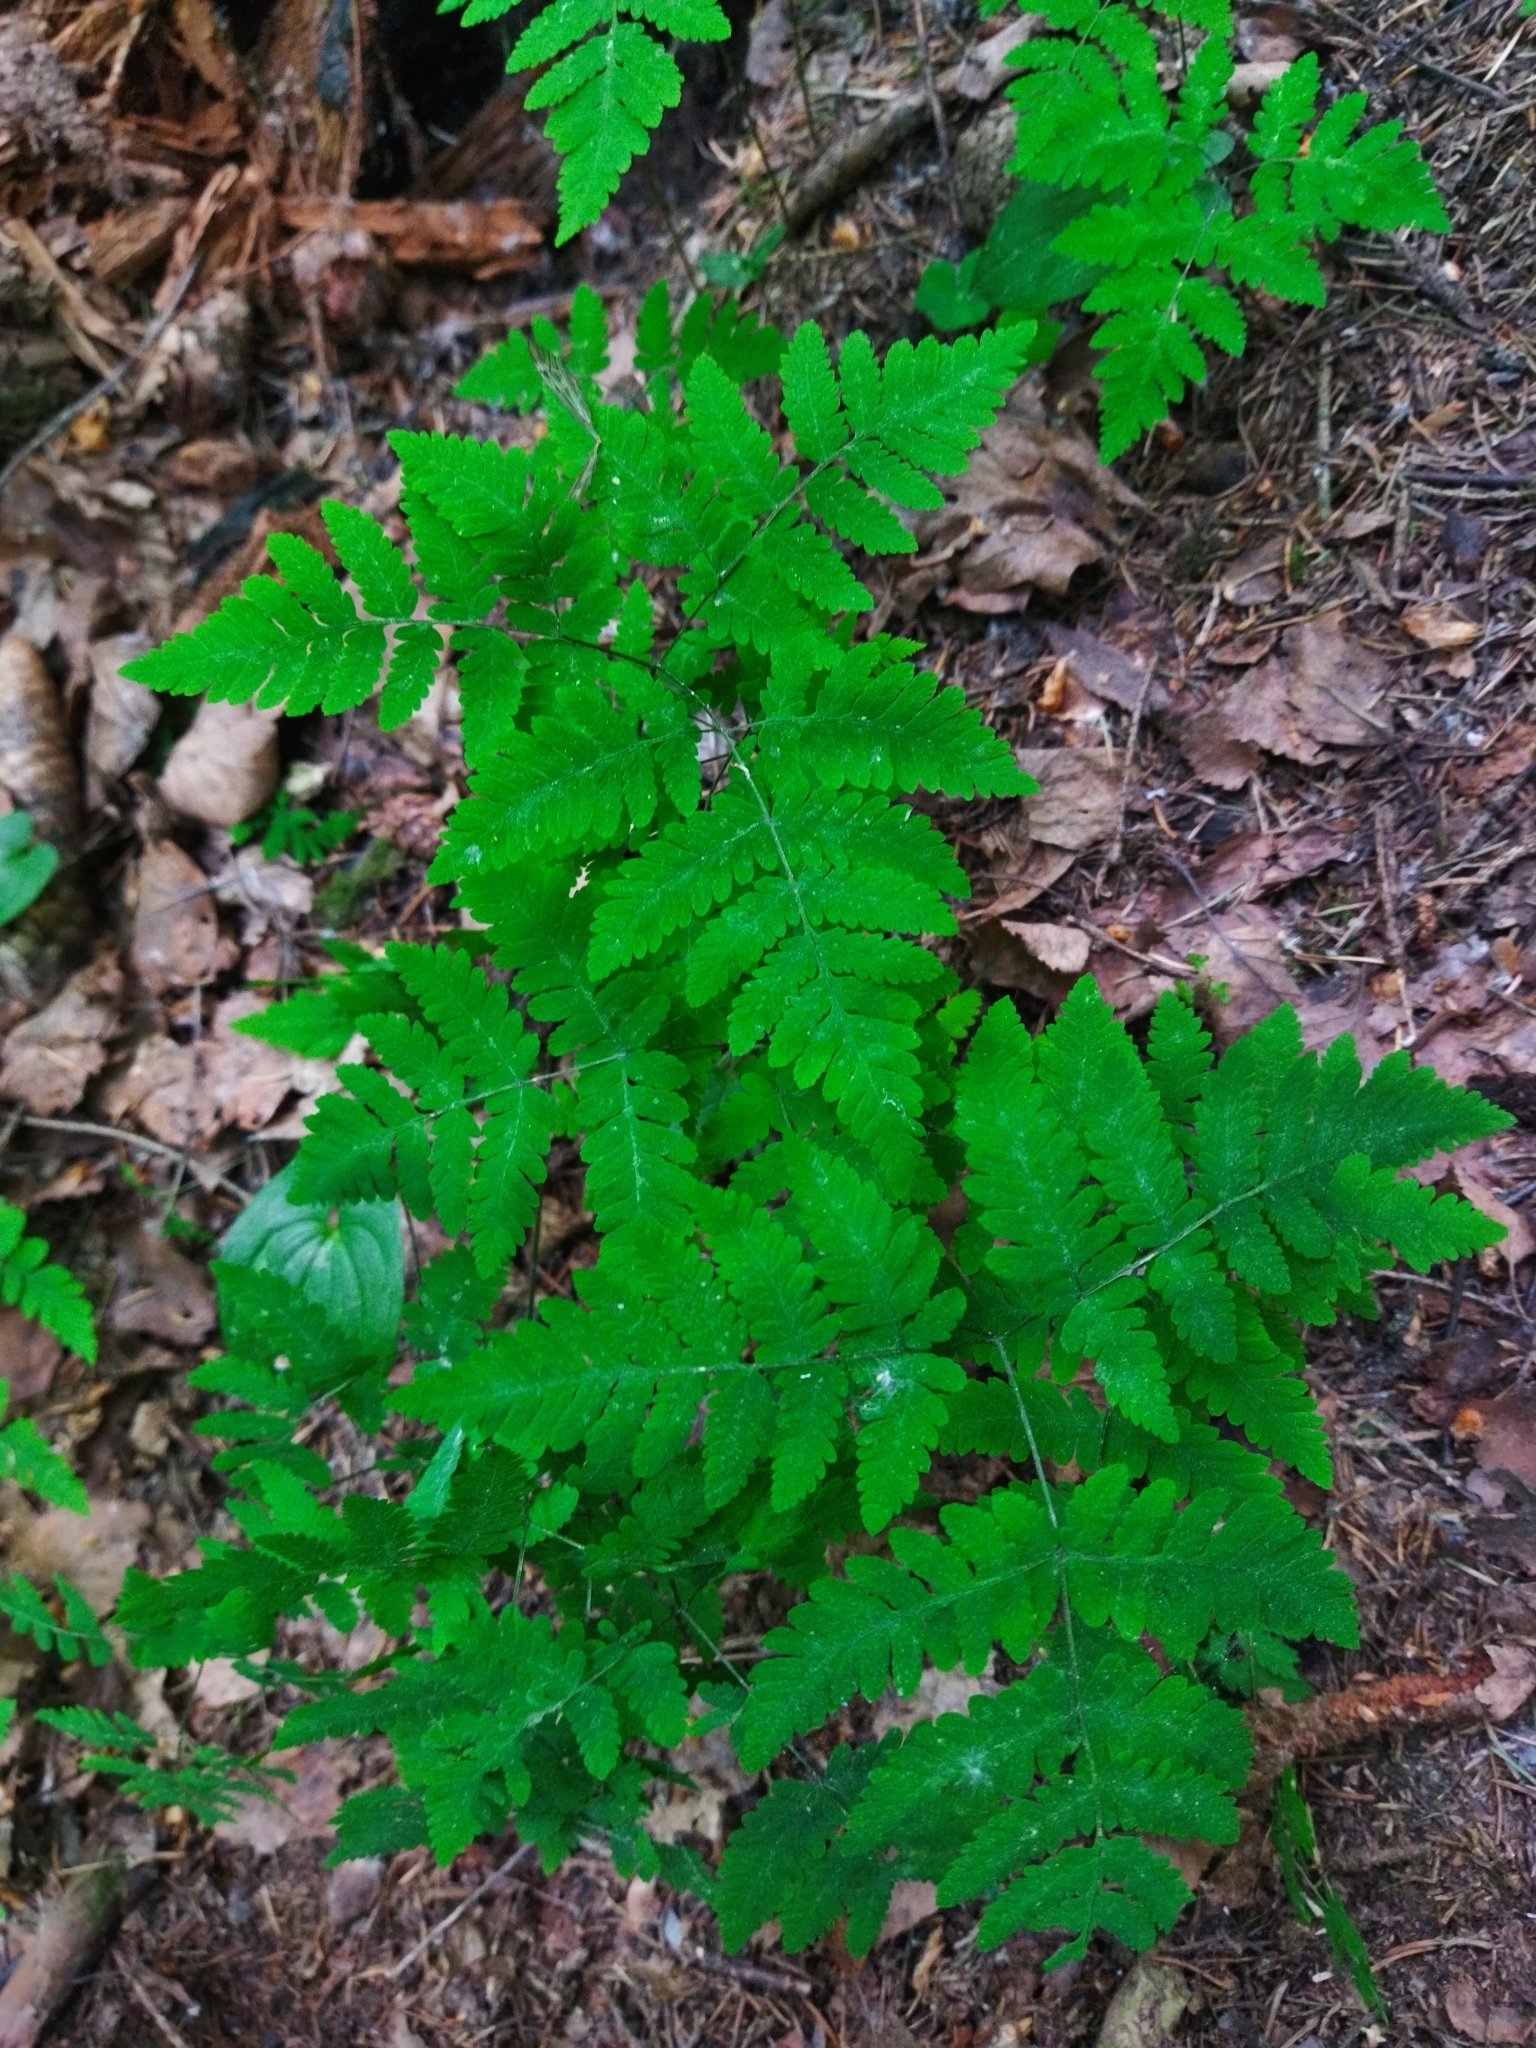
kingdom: Plantae
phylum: Tracheophyta
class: Polypodiopsida
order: Polypodiales
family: Cystopteridaceae
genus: Gymnocarpium
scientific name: Gymnocarpium dryopteris
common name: Oak fern
